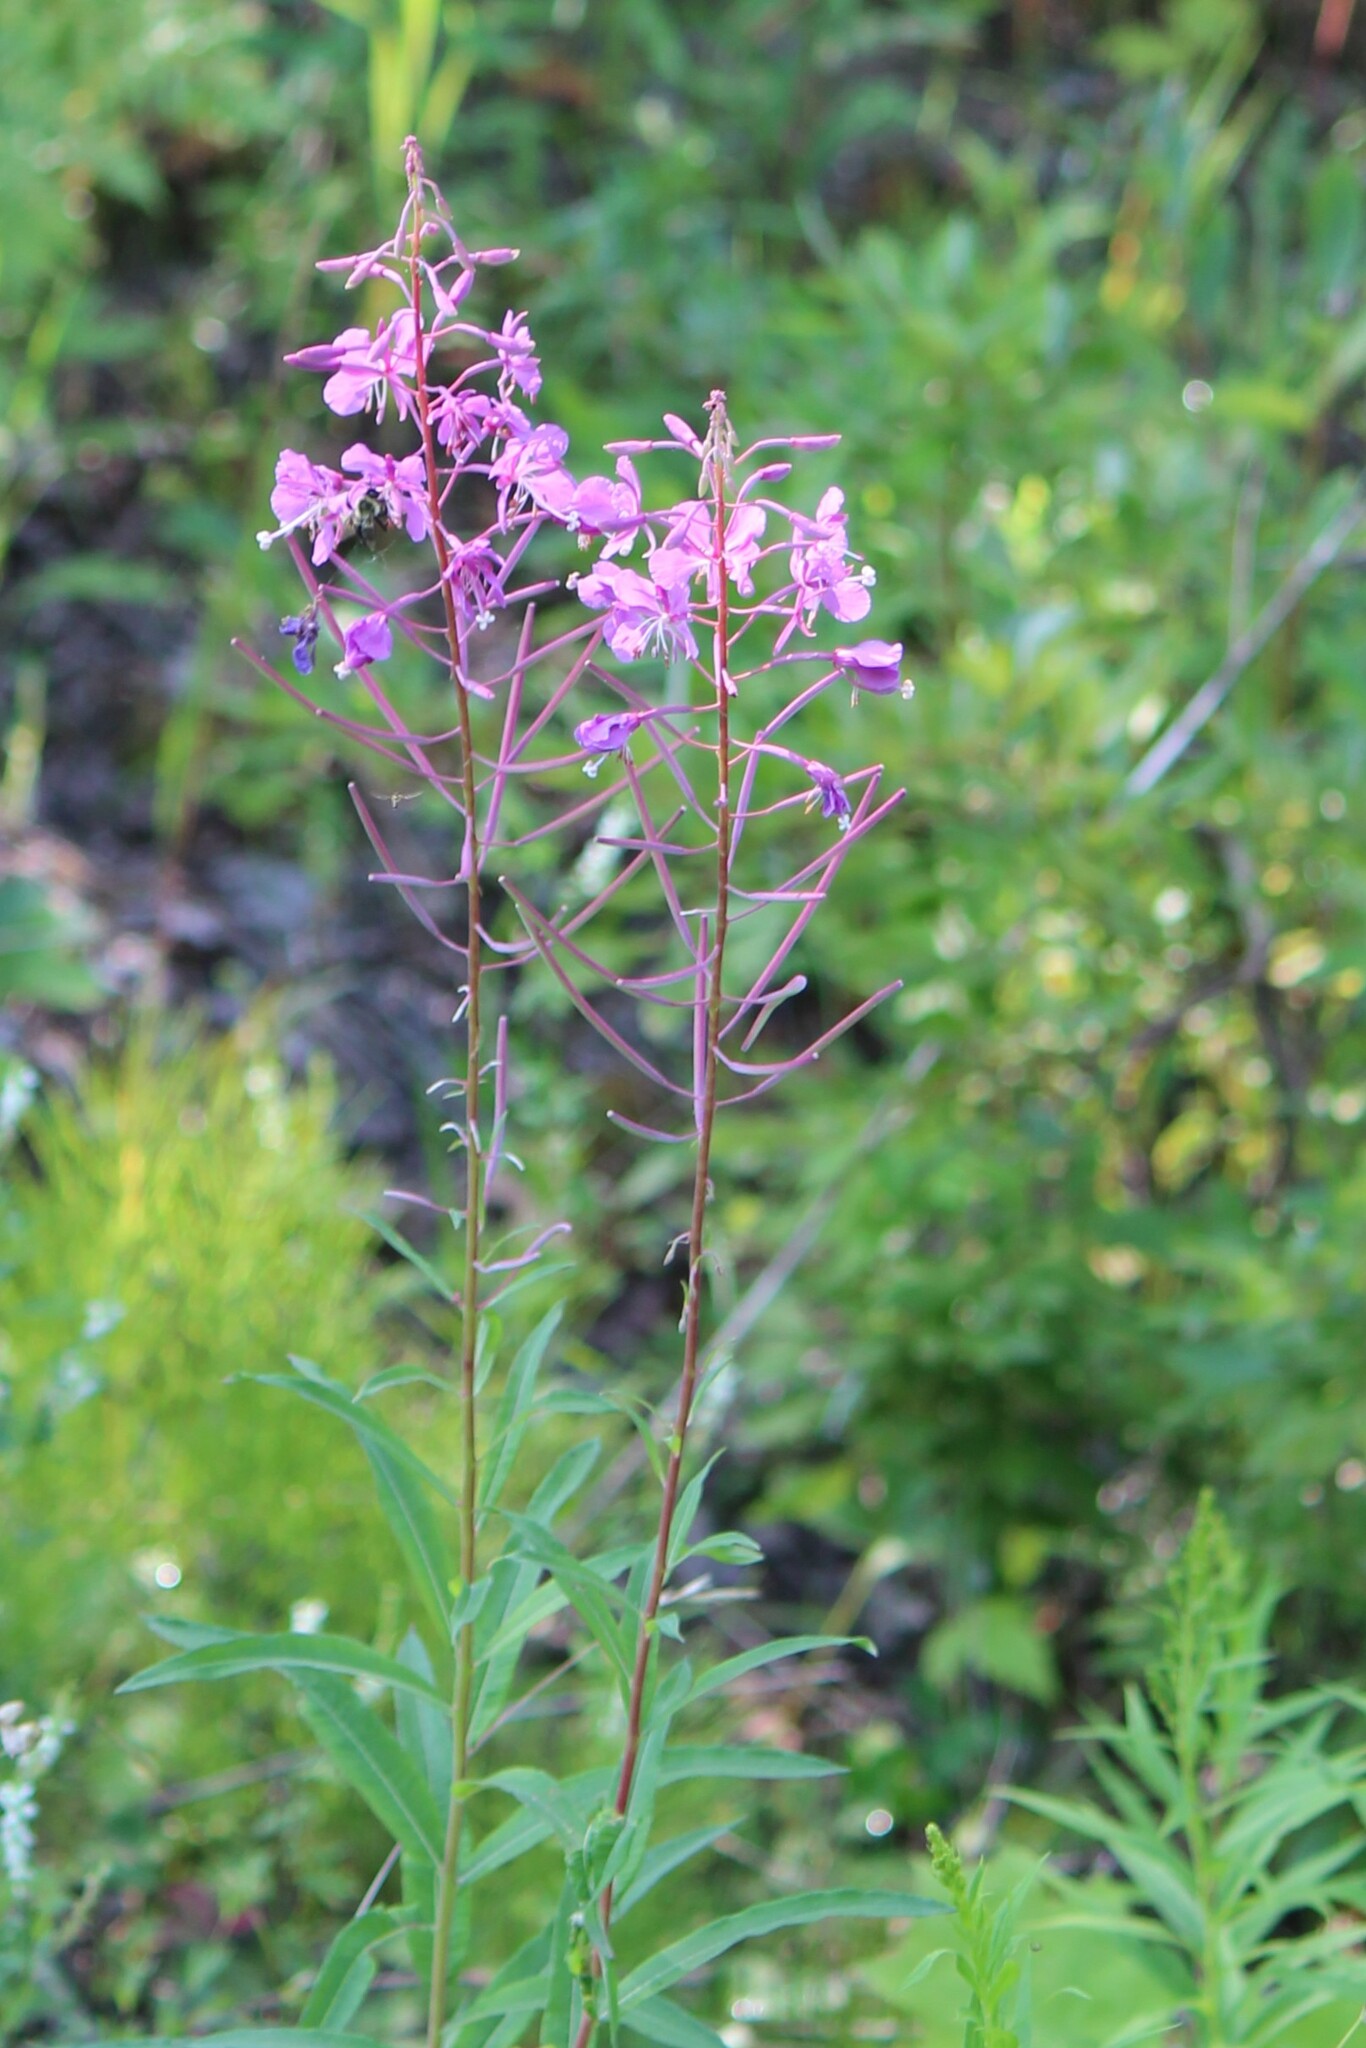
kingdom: Plantae
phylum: Tracheophyta
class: Magnoliopsida
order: Myrtales
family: Onagraceae
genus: Chamaenerion
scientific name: Chamaenerion angustifolium
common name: Fireweed
